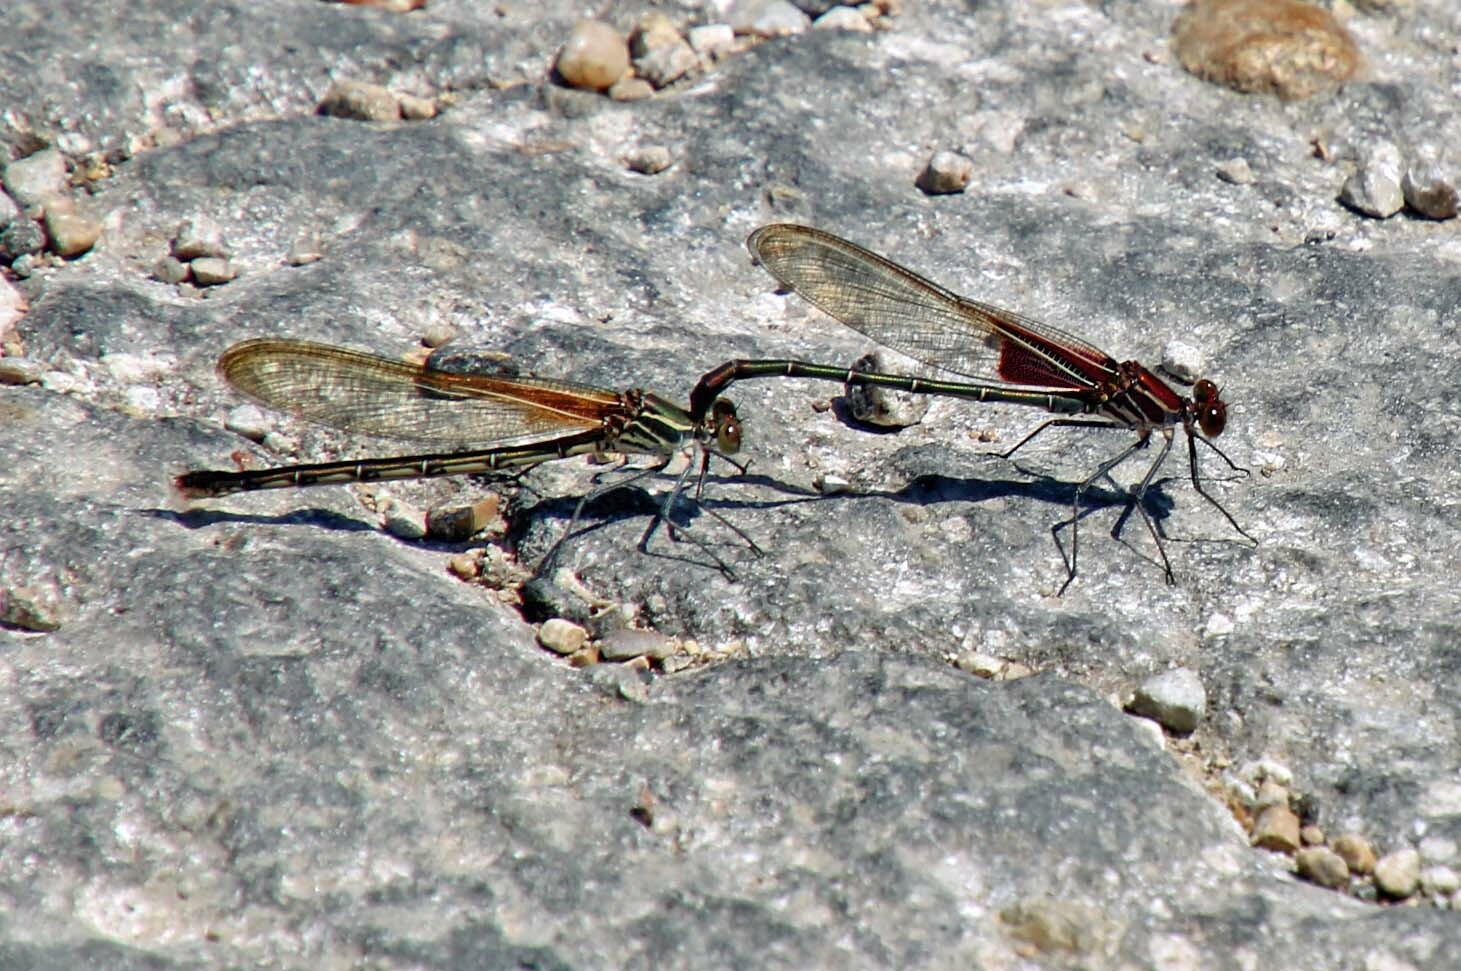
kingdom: Animalia
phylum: Arthropoda
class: Insecta
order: Odonata
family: Calopterygidae
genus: Hetaerina
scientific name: Hetaerina americana
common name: American rubyspot
